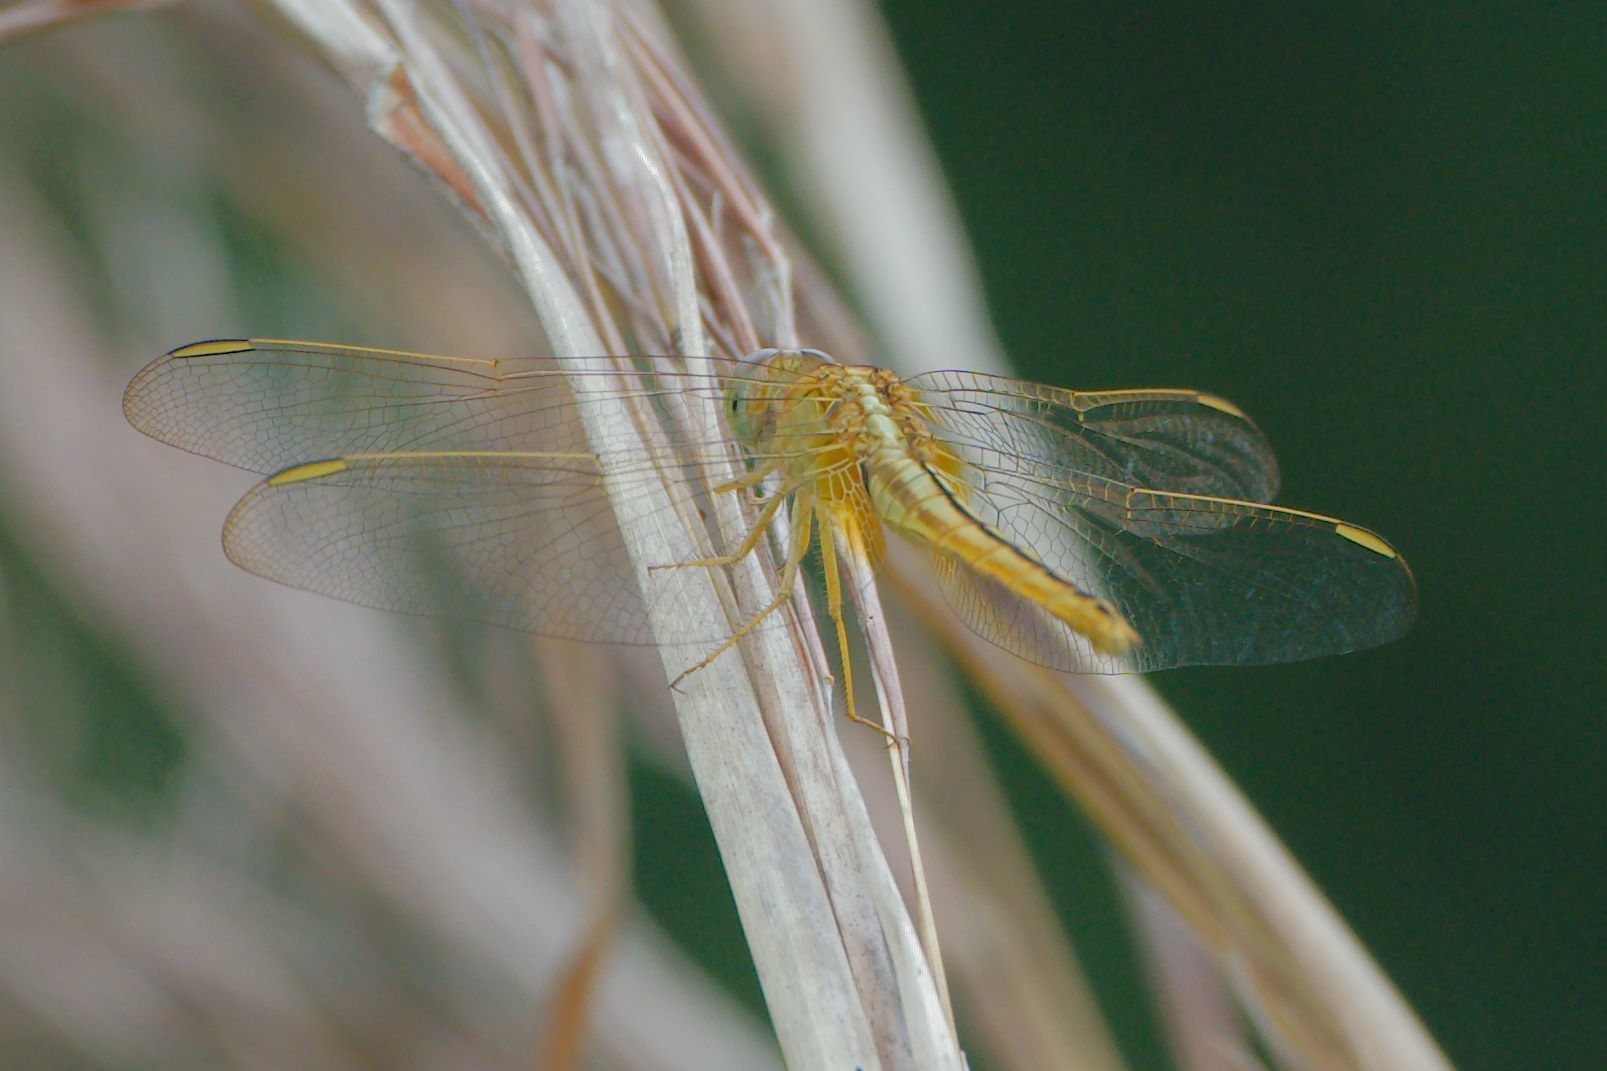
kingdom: Animalia
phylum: Arthropoda
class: Insecta
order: Odonata
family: Libellulidae
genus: Crocothemis
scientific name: Crocothemis servilia
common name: Scarlet skimmer
